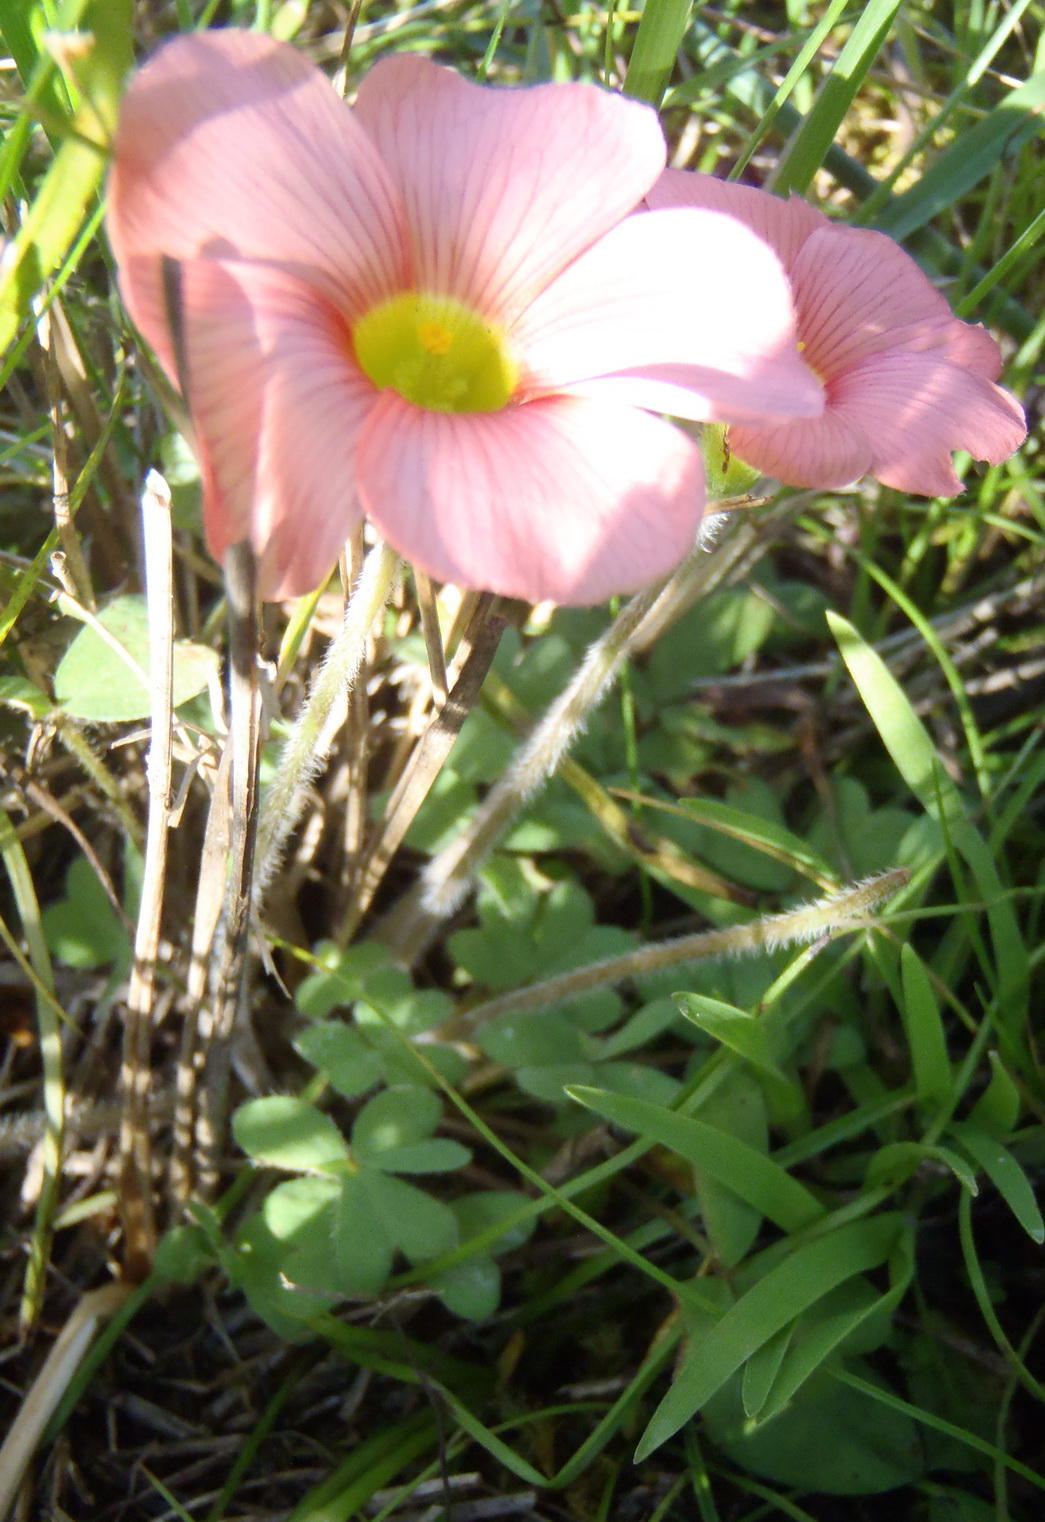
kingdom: Plantae
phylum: Tracheophyta
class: Magnoliopsida
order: Oxalidales
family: Oxalidaceae
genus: Oxalis
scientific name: Oxalis obtusa
